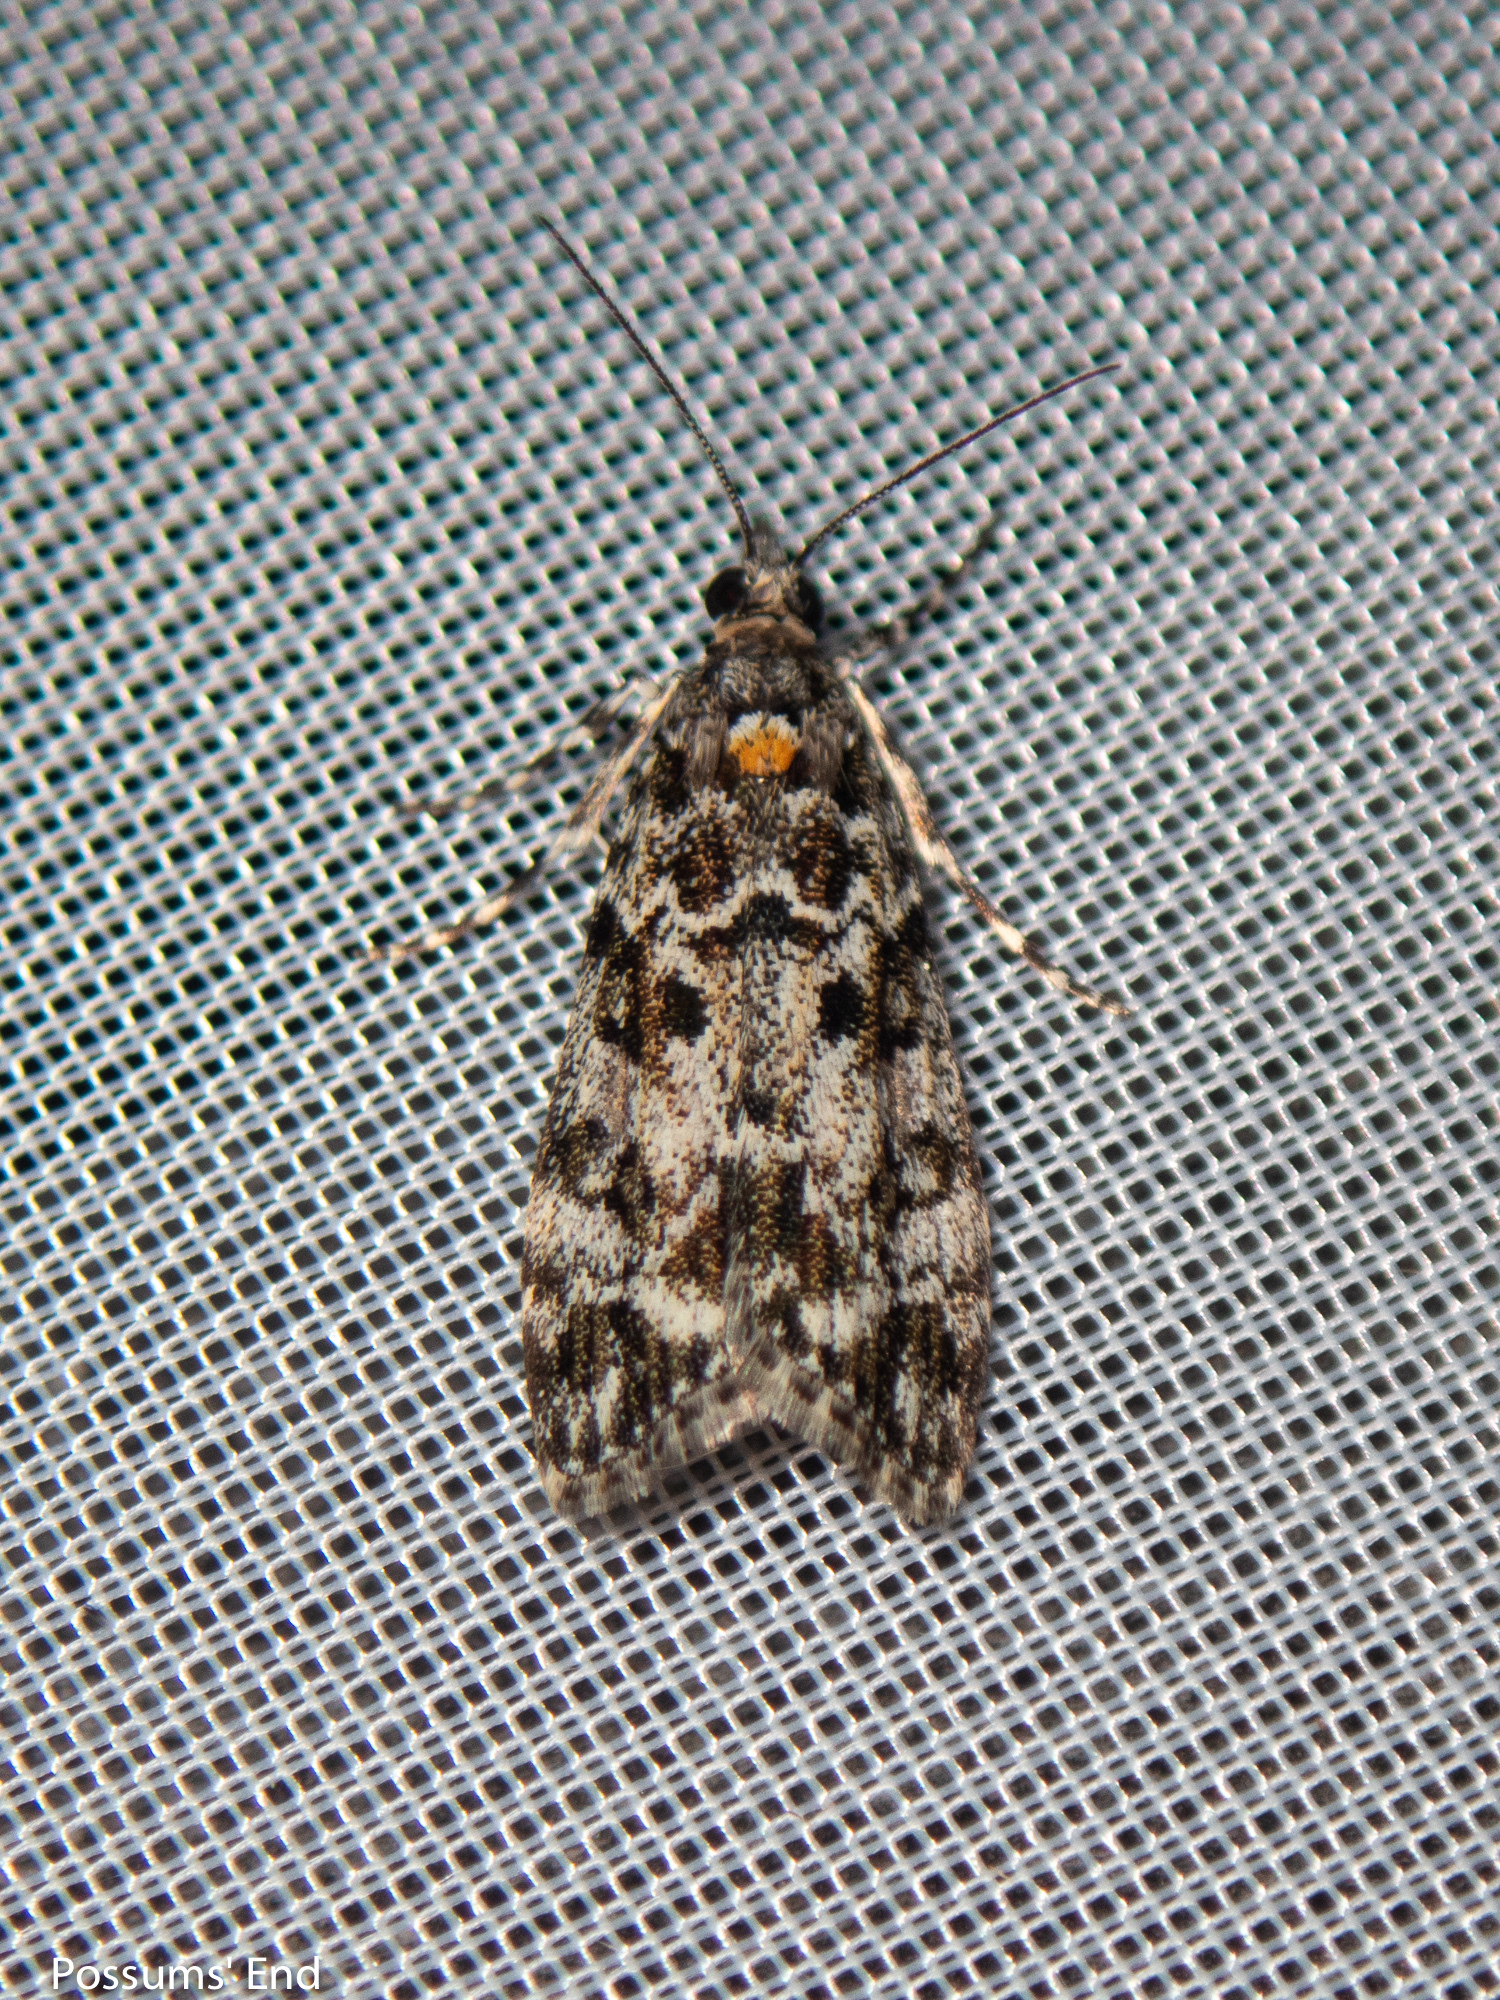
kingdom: Animalia
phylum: Arthropoda
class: Insecta
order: Lepidoptera
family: Crambidae
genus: Eudonia
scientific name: Eudonia
